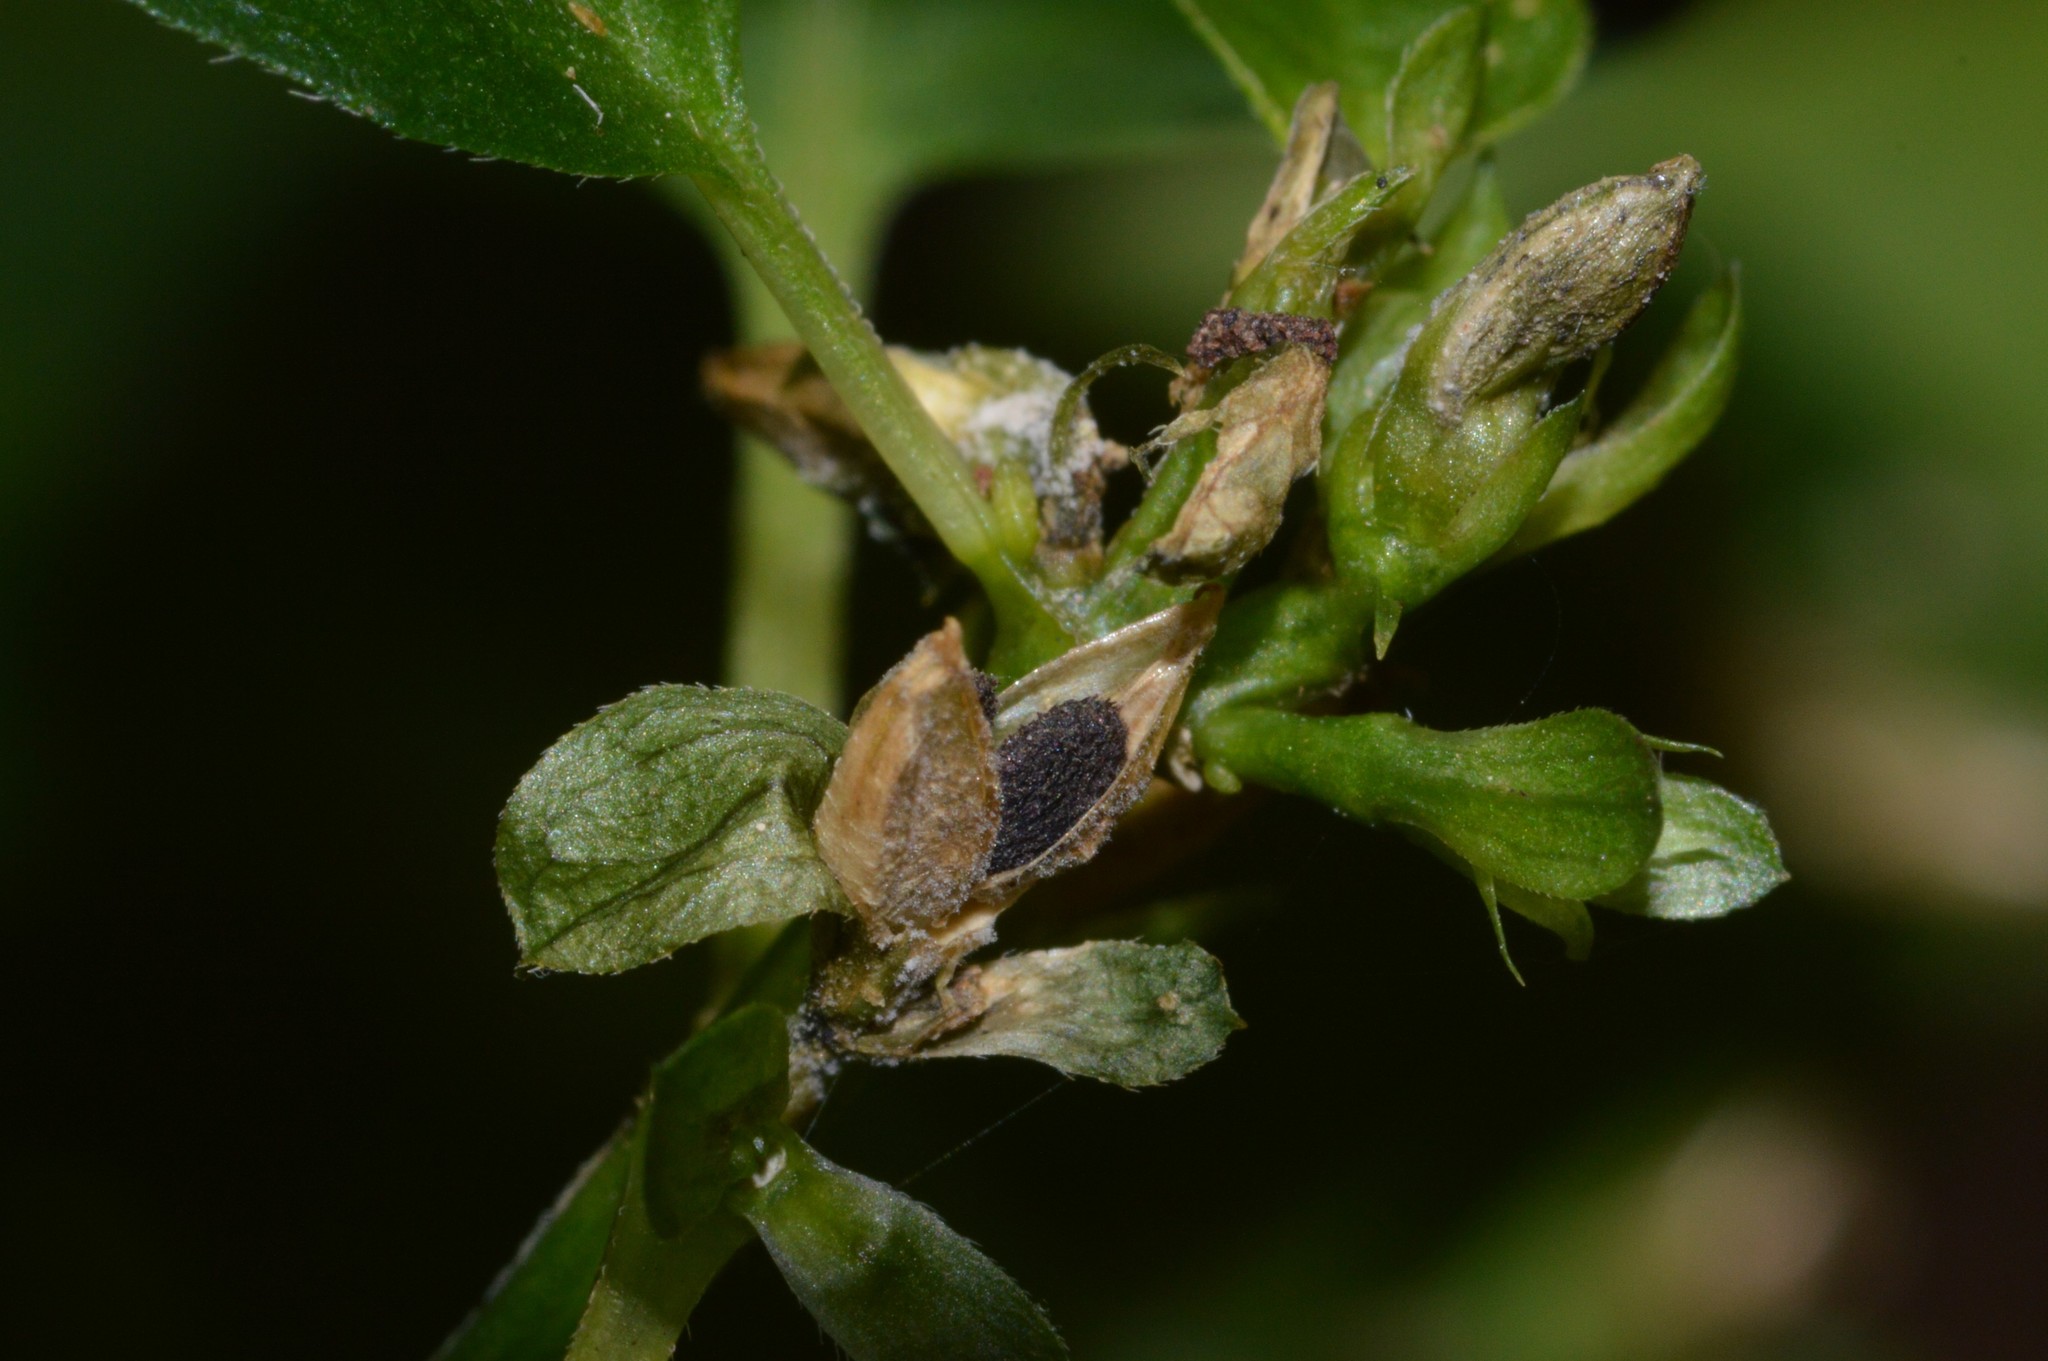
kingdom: Plantae
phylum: Tracheophyta
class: Magnoliopsida
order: Lamiales
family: Acanthaceae
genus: Yeatesia
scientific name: Yeatesia viridiflora
